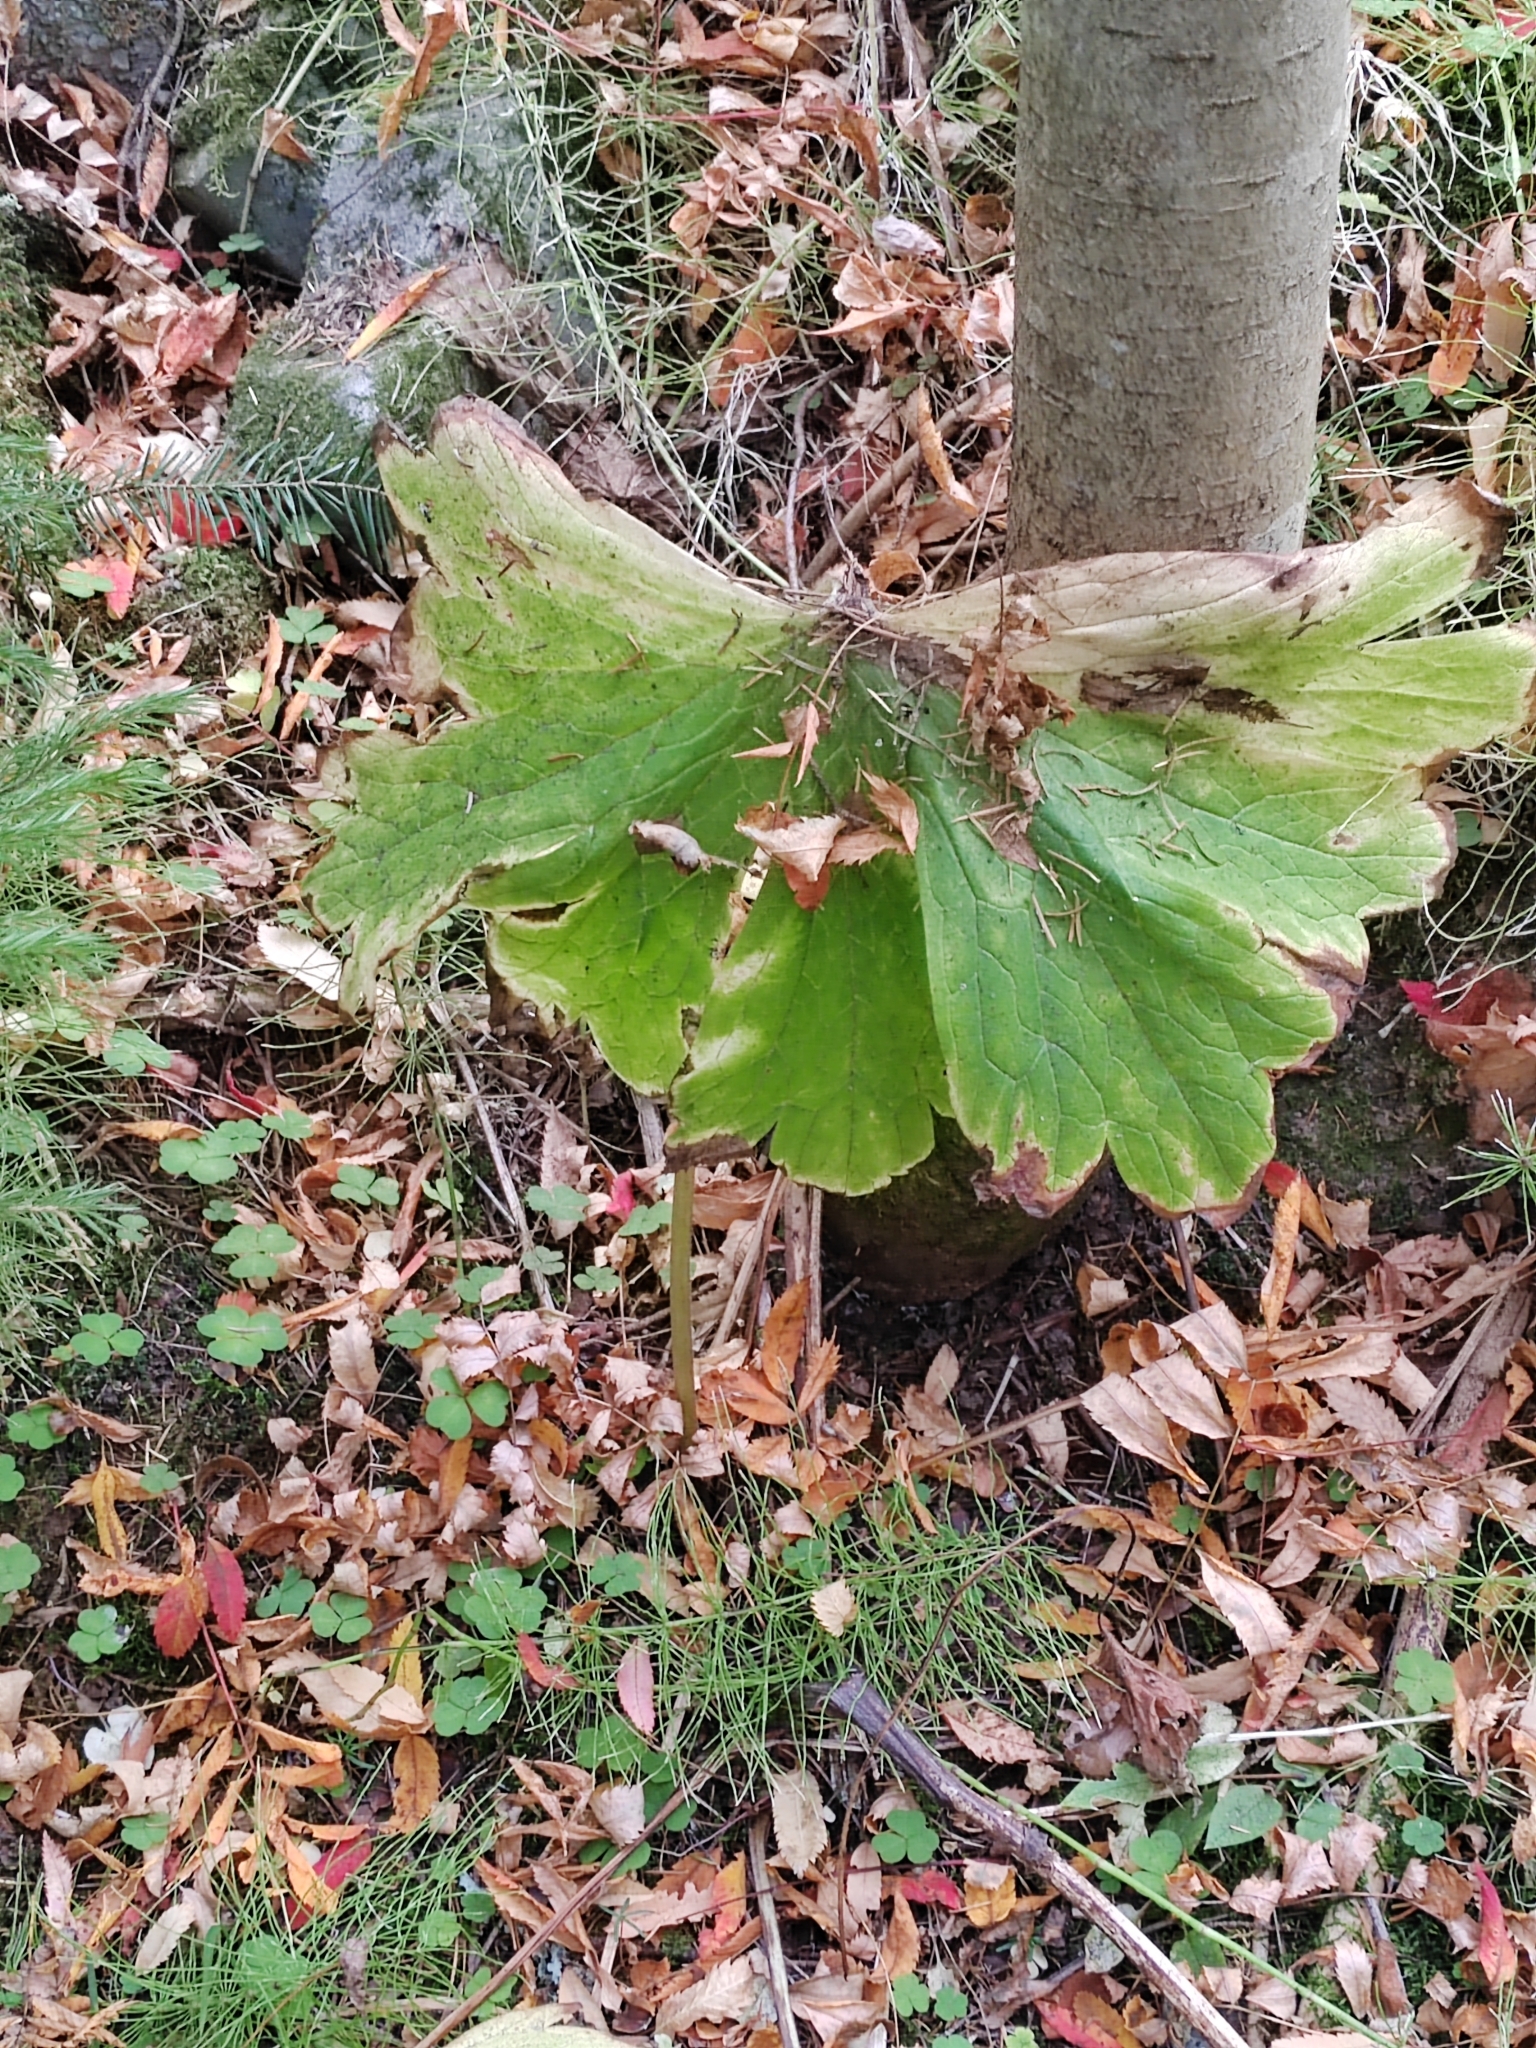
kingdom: Plantae
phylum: Tracheophyta
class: Magnoliopsida
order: Ranunculales
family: Ranunculaceae
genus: Aconitum
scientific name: Aconitum septentrionale
